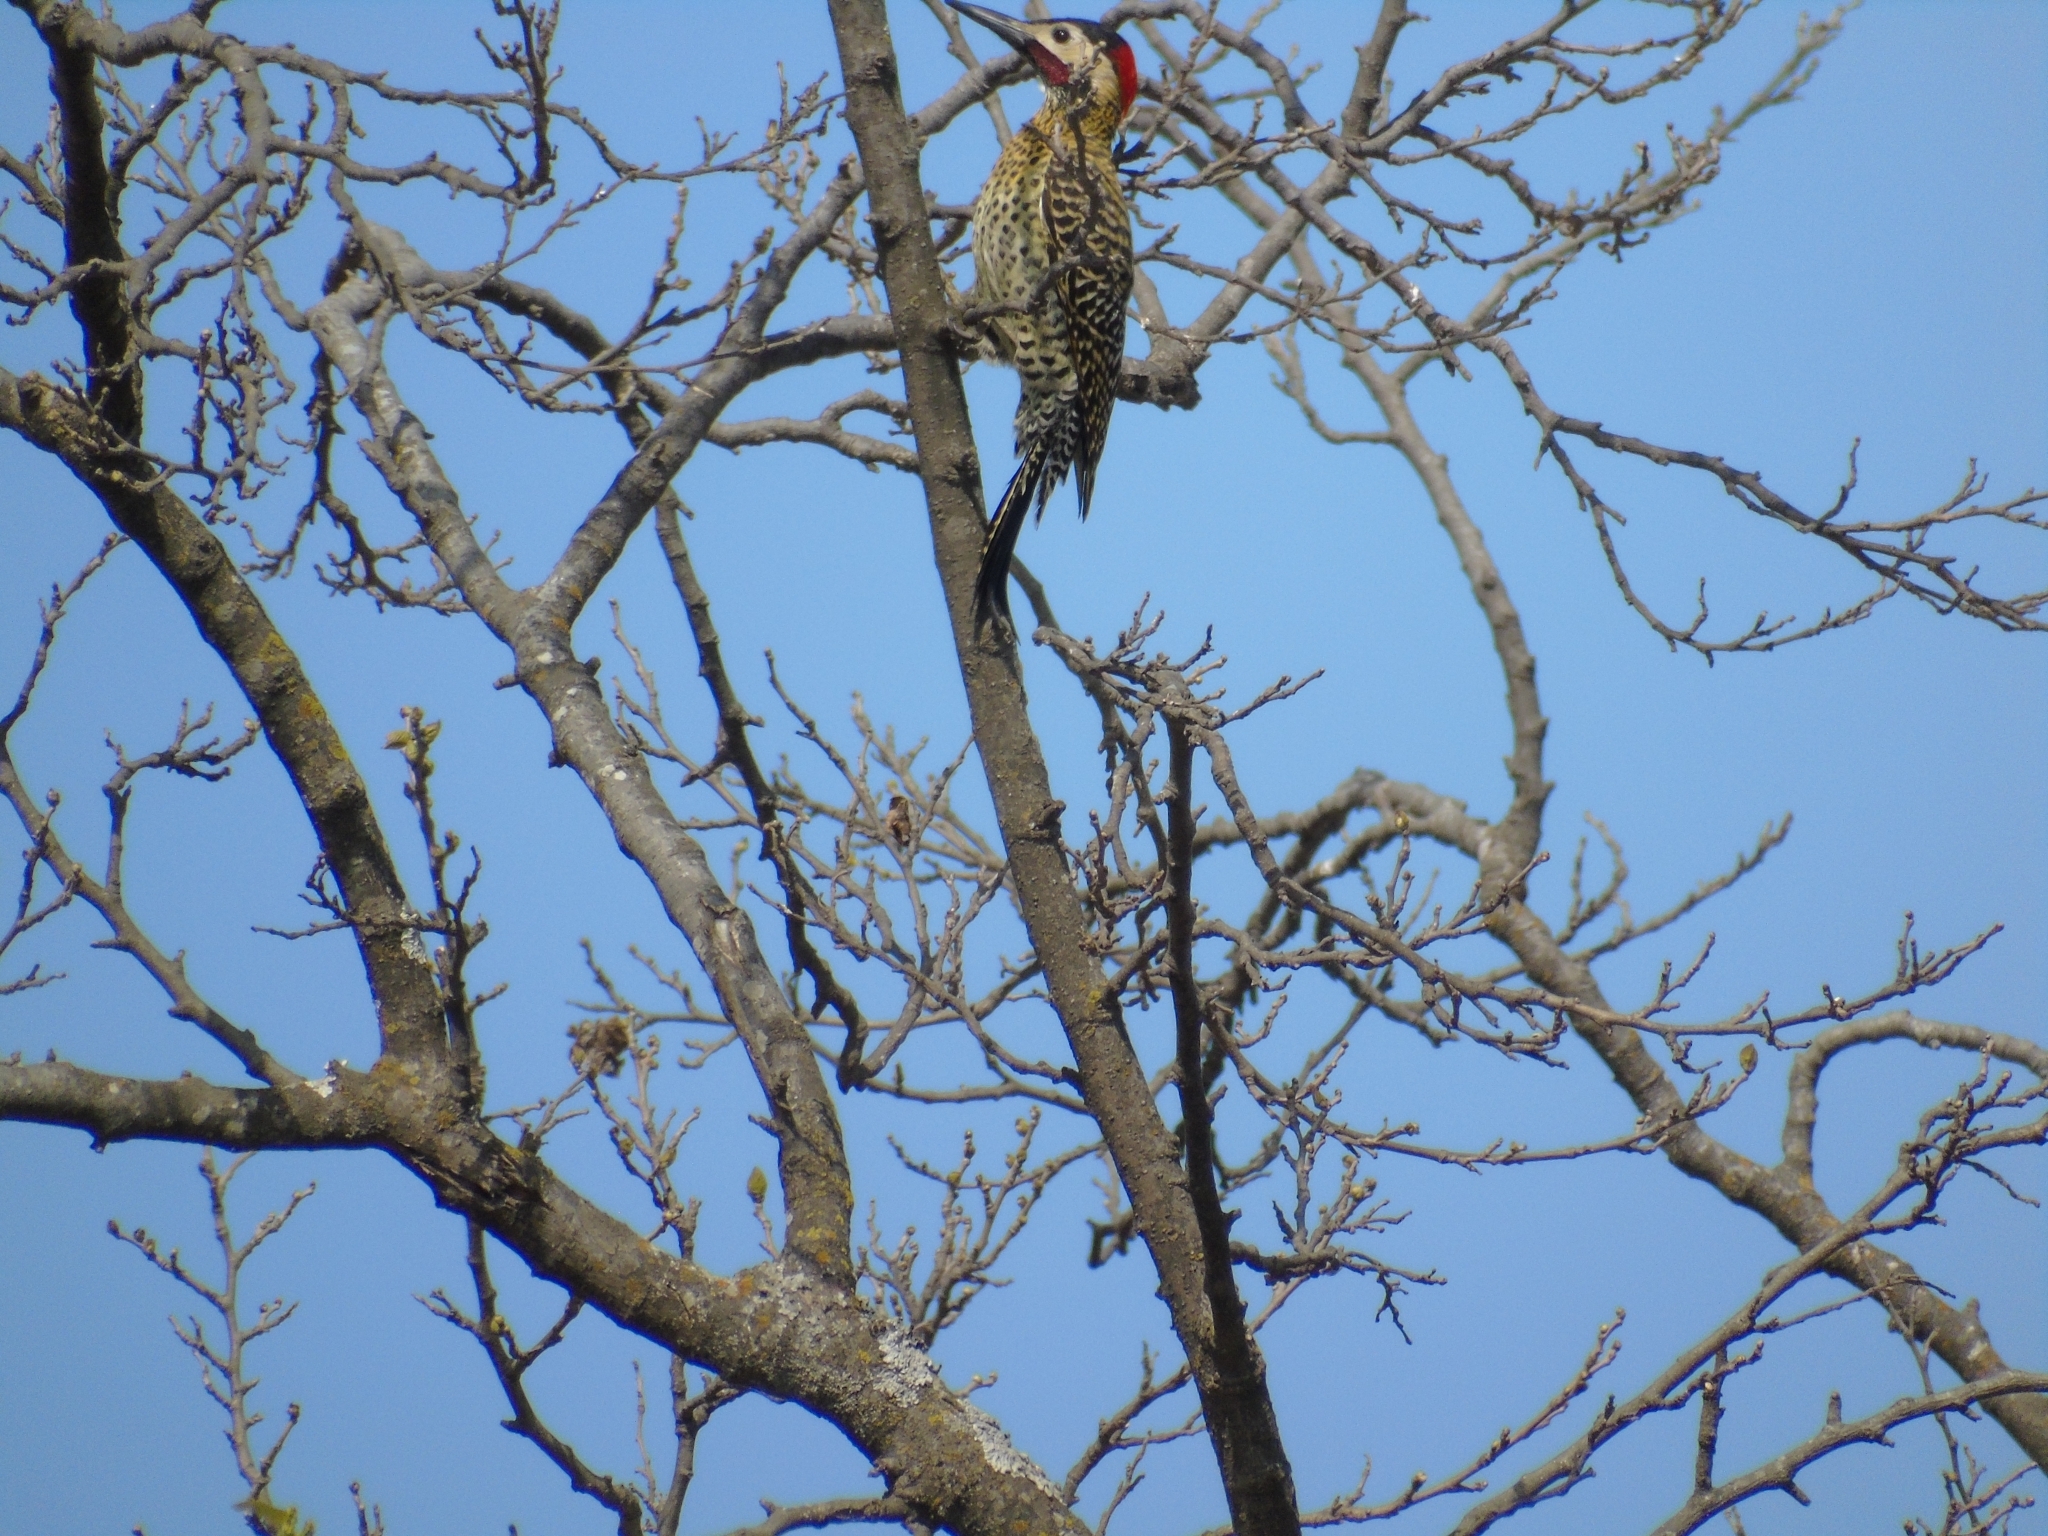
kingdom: Animalia
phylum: Chordata
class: Aves
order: Piciformes
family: Picidae
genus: Colaptes
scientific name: Colaptes melanochloros
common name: Green-barred woodpecker
